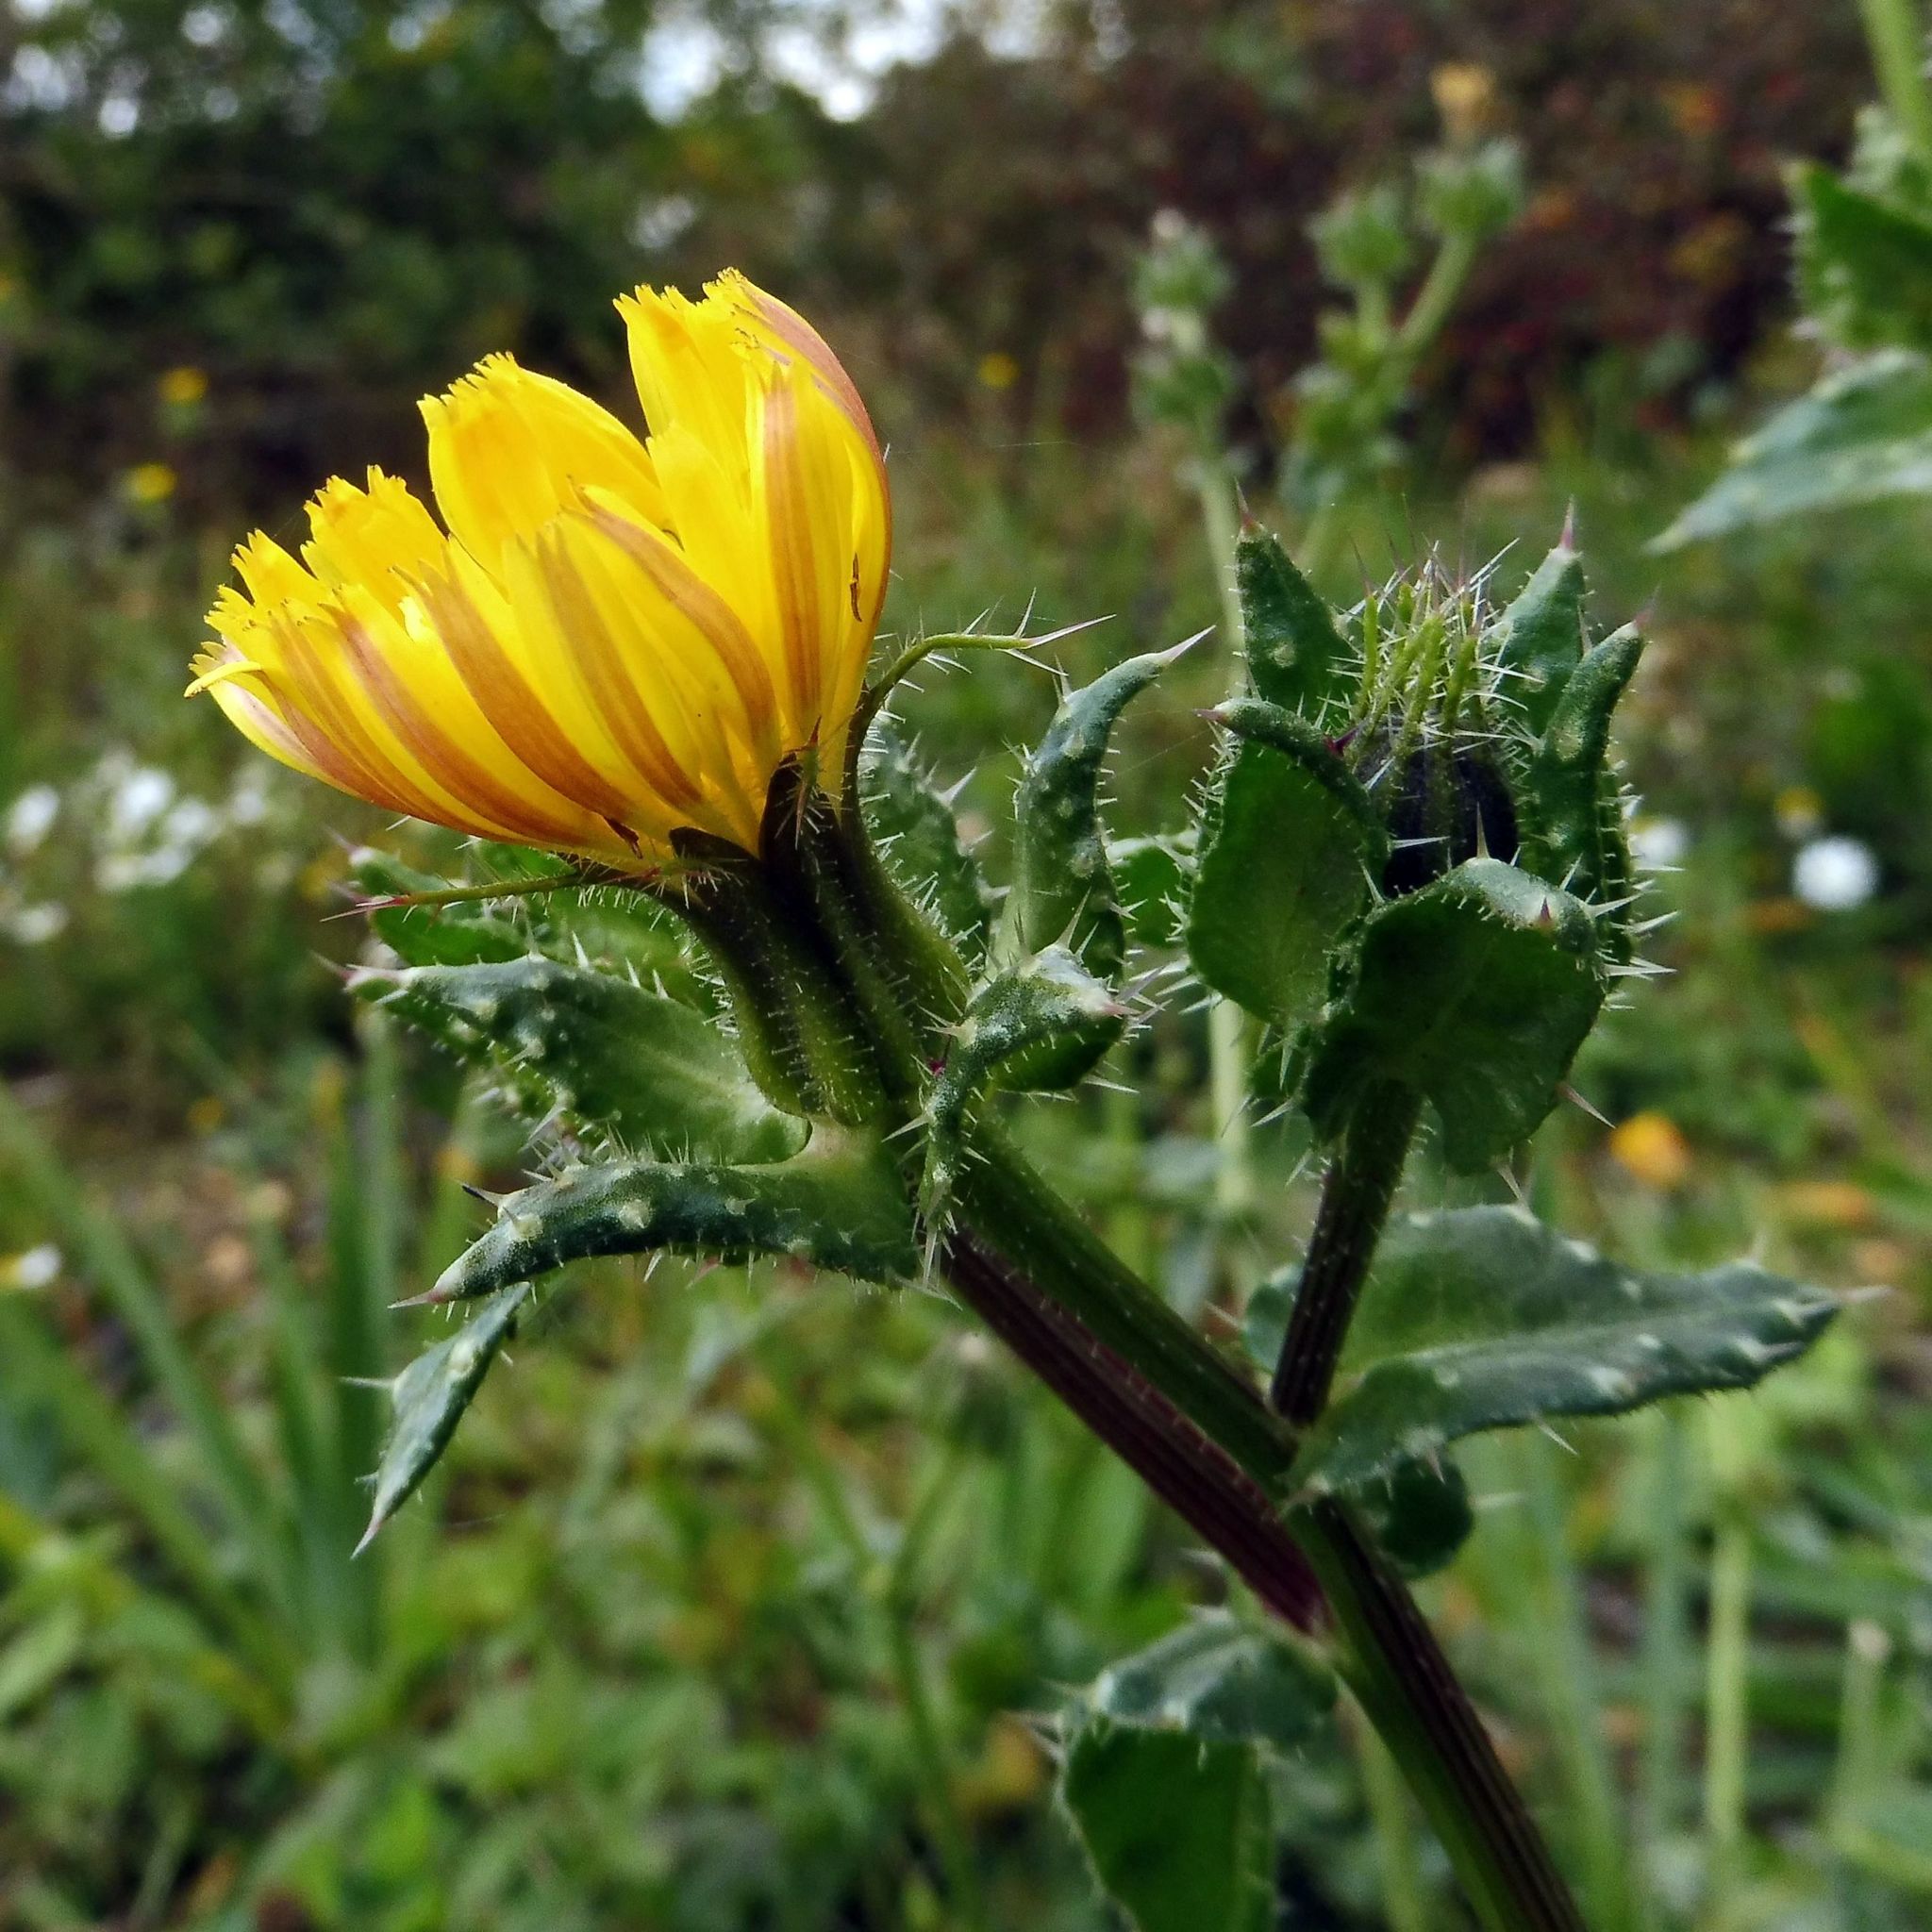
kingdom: Plantae
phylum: Tracheophyta
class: Magnoliopsida
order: Asterales
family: Asteraceae
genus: Helminthotheca
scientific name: Helminthotheca echioides
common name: Ox-tongue
